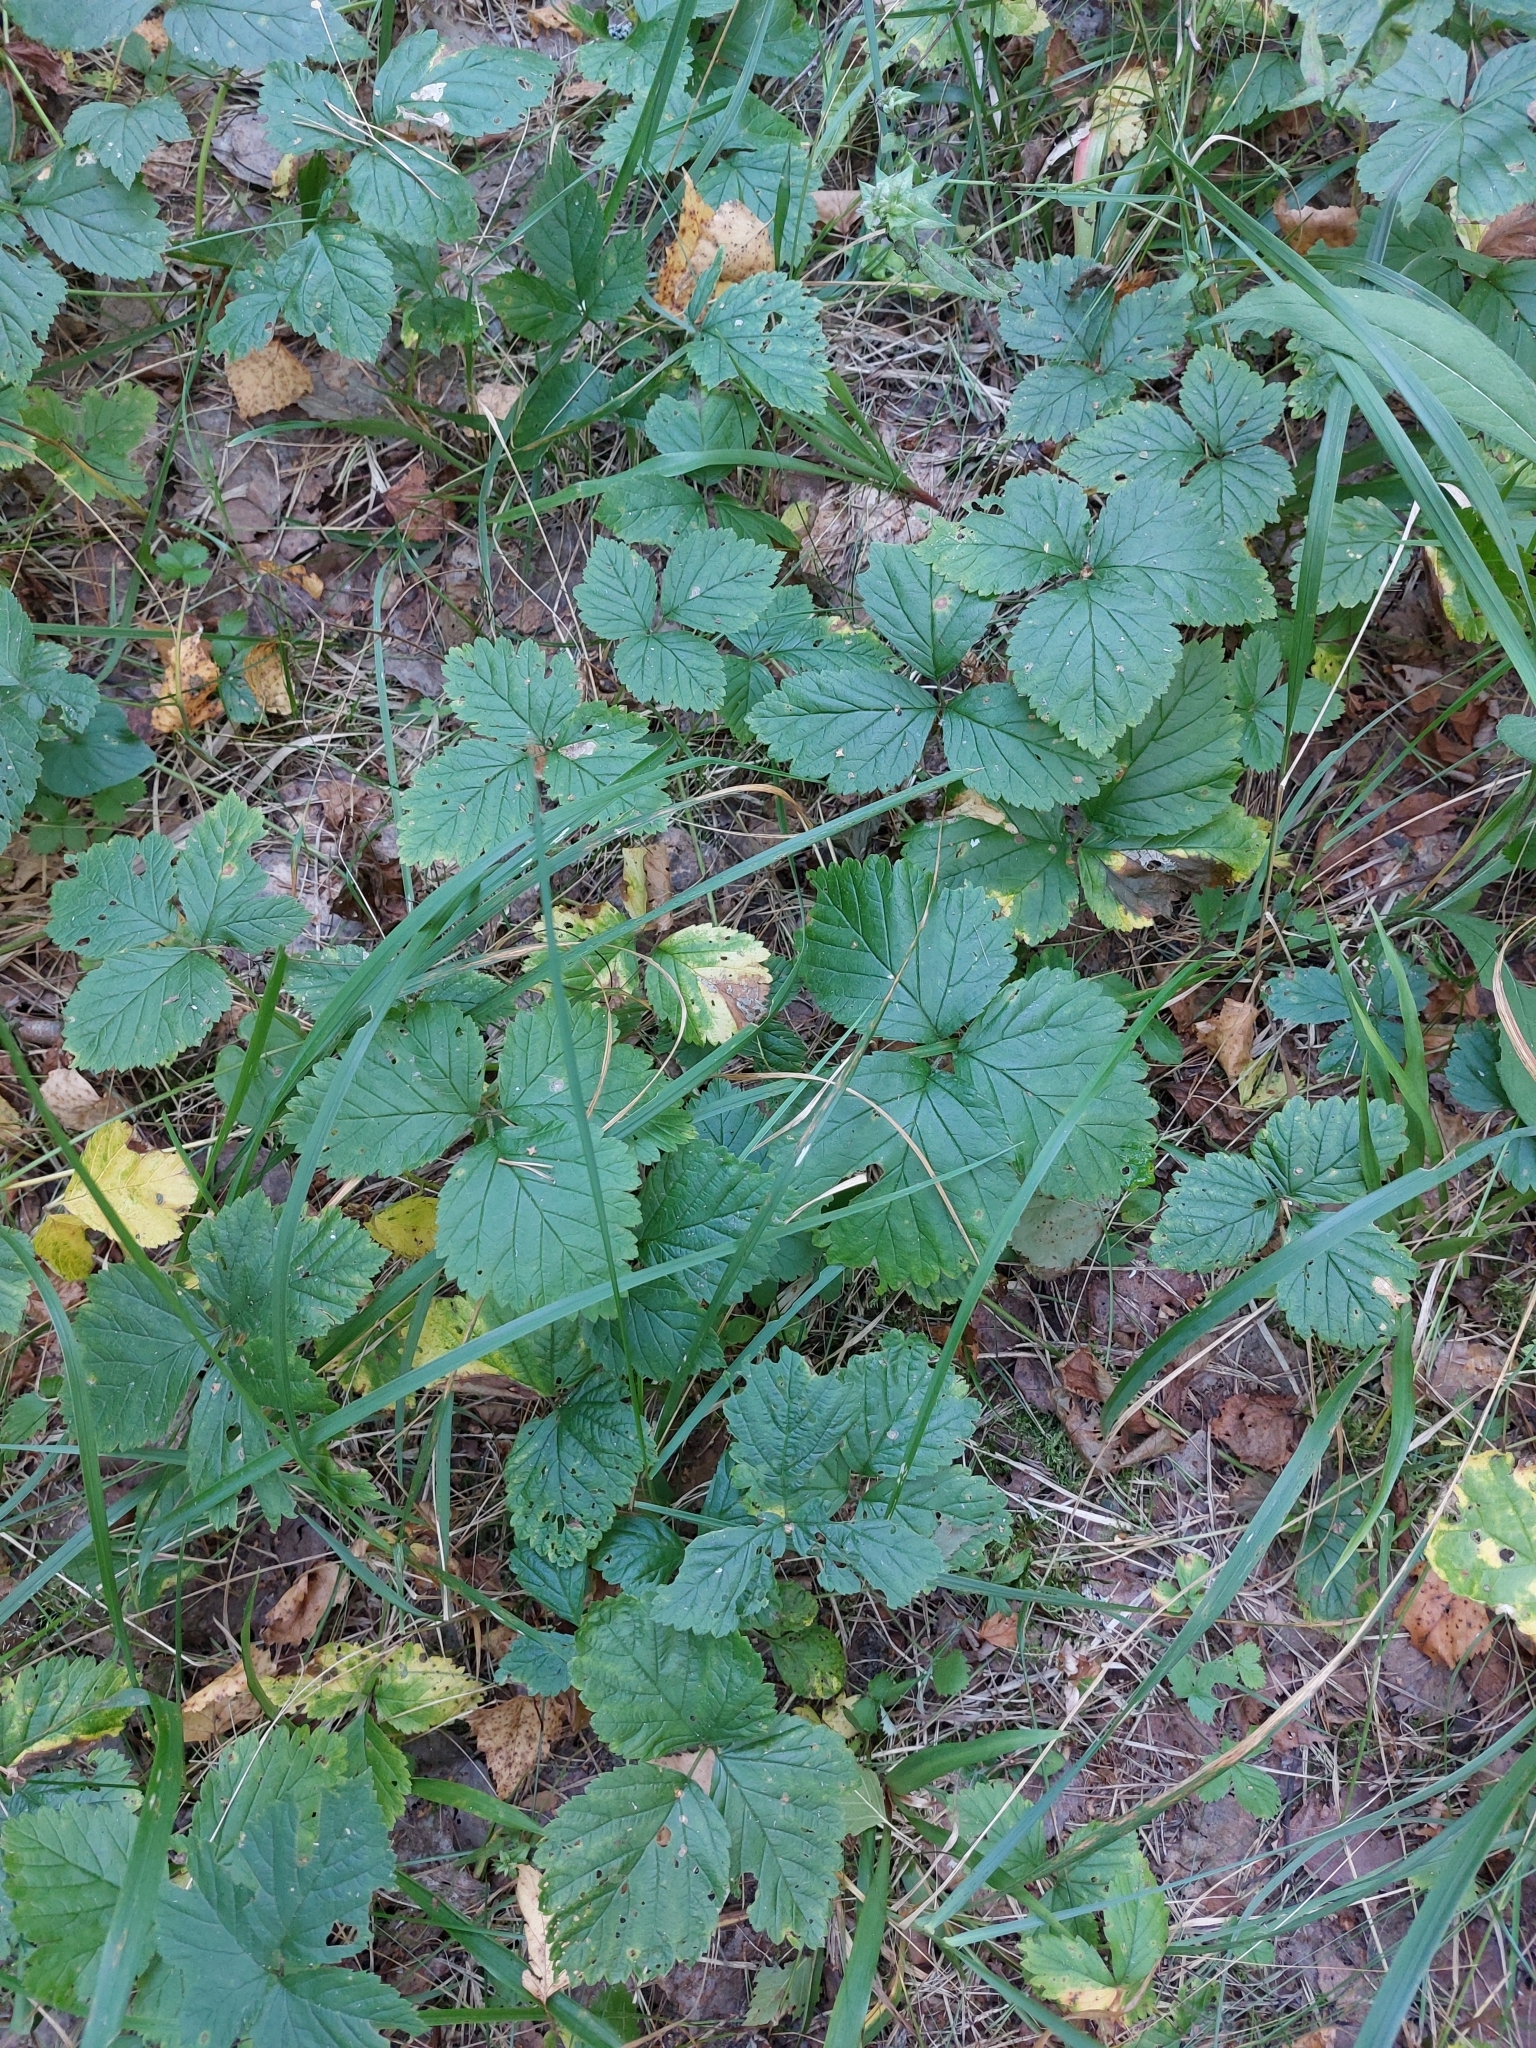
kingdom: Plantae
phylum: Tracheophyta
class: Magnoliopsida
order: Rosales
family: Rosaceae
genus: Rubus
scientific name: Rubus saxatilis
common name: Stone bramble
